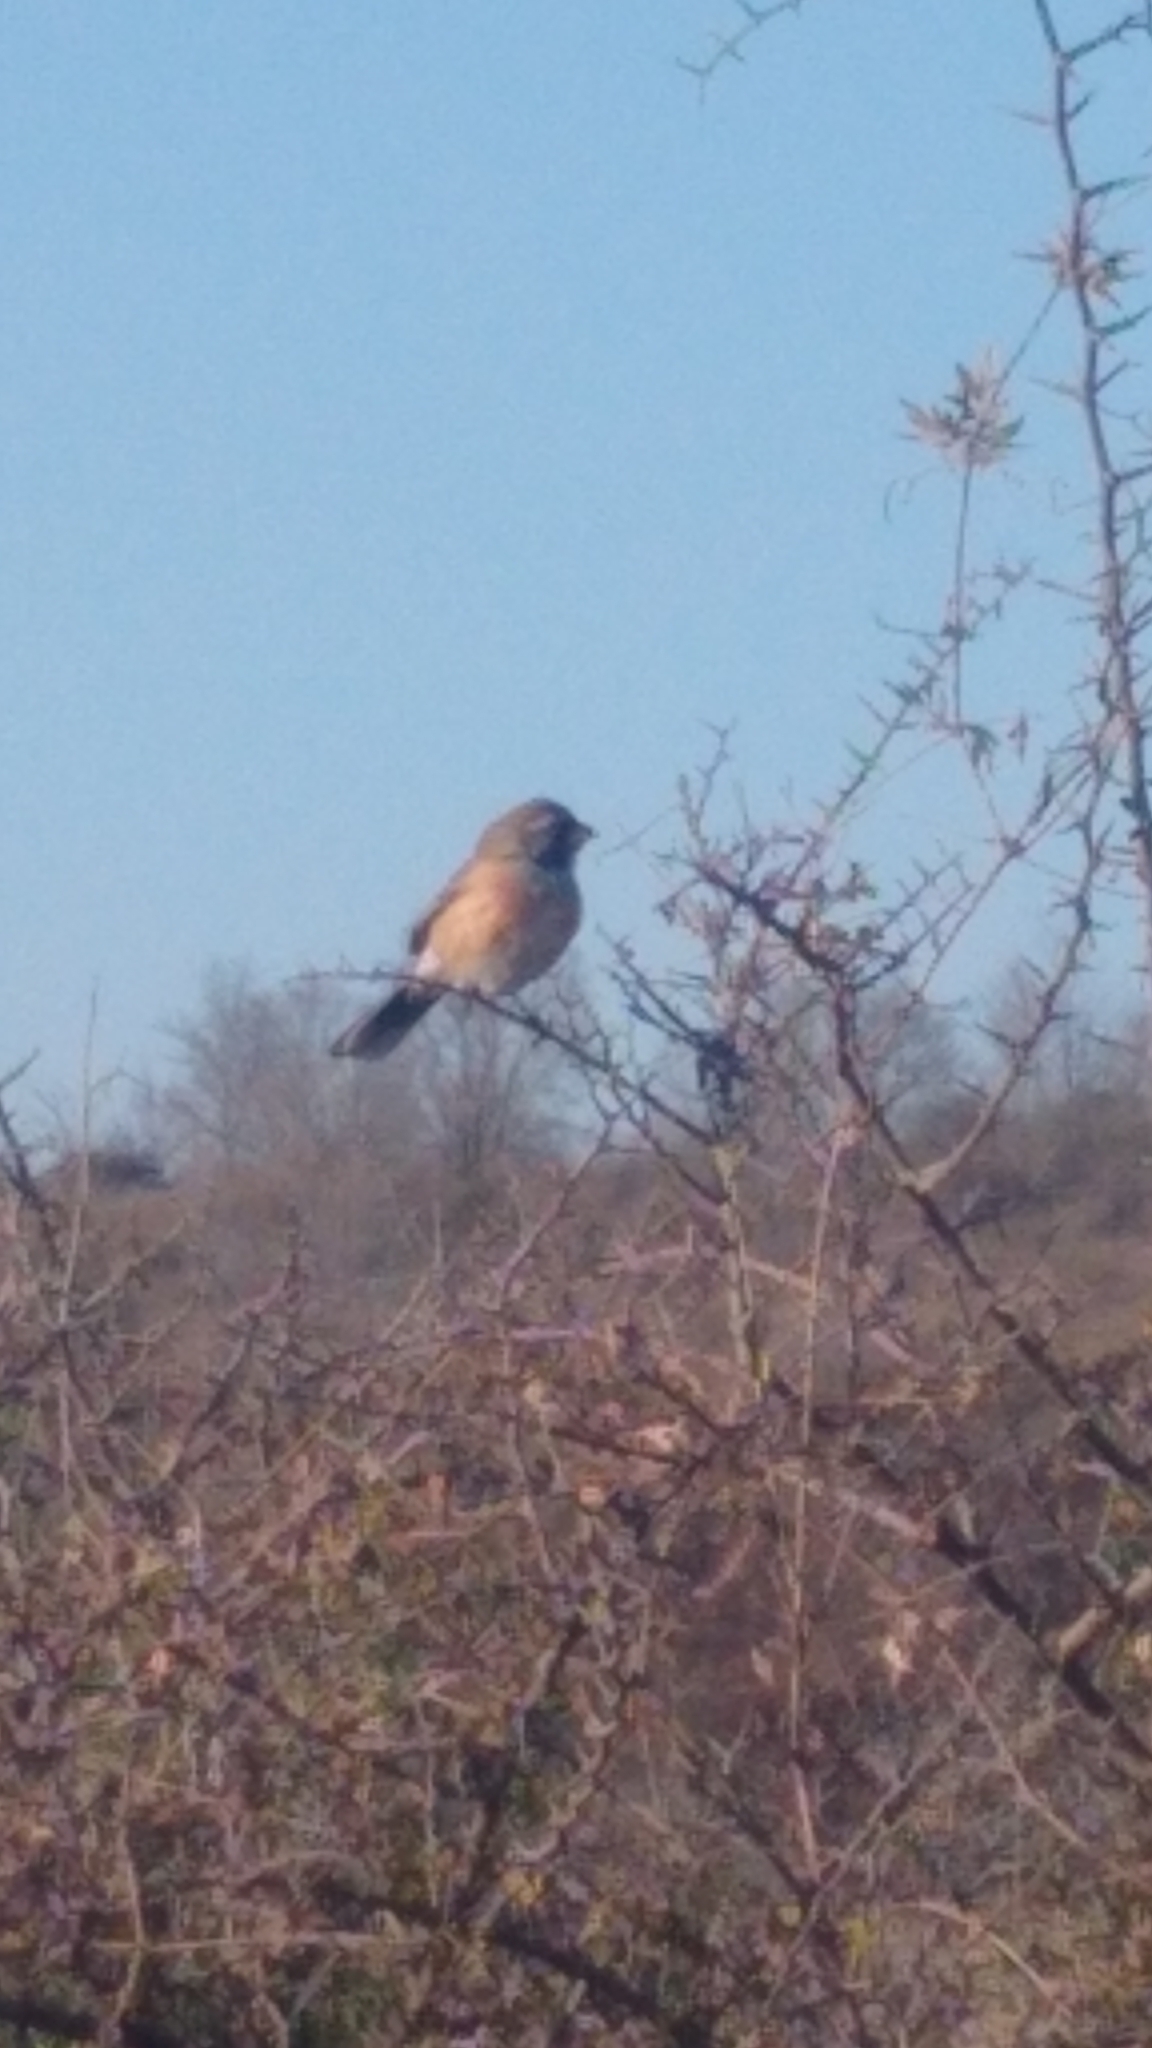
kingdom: Animalia
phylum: Chordata
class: Aves
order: Passeriformes
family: Thraupidae
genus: Saltatricula
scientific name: Saltatricula multicolor
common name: Many-colored chaco finch
